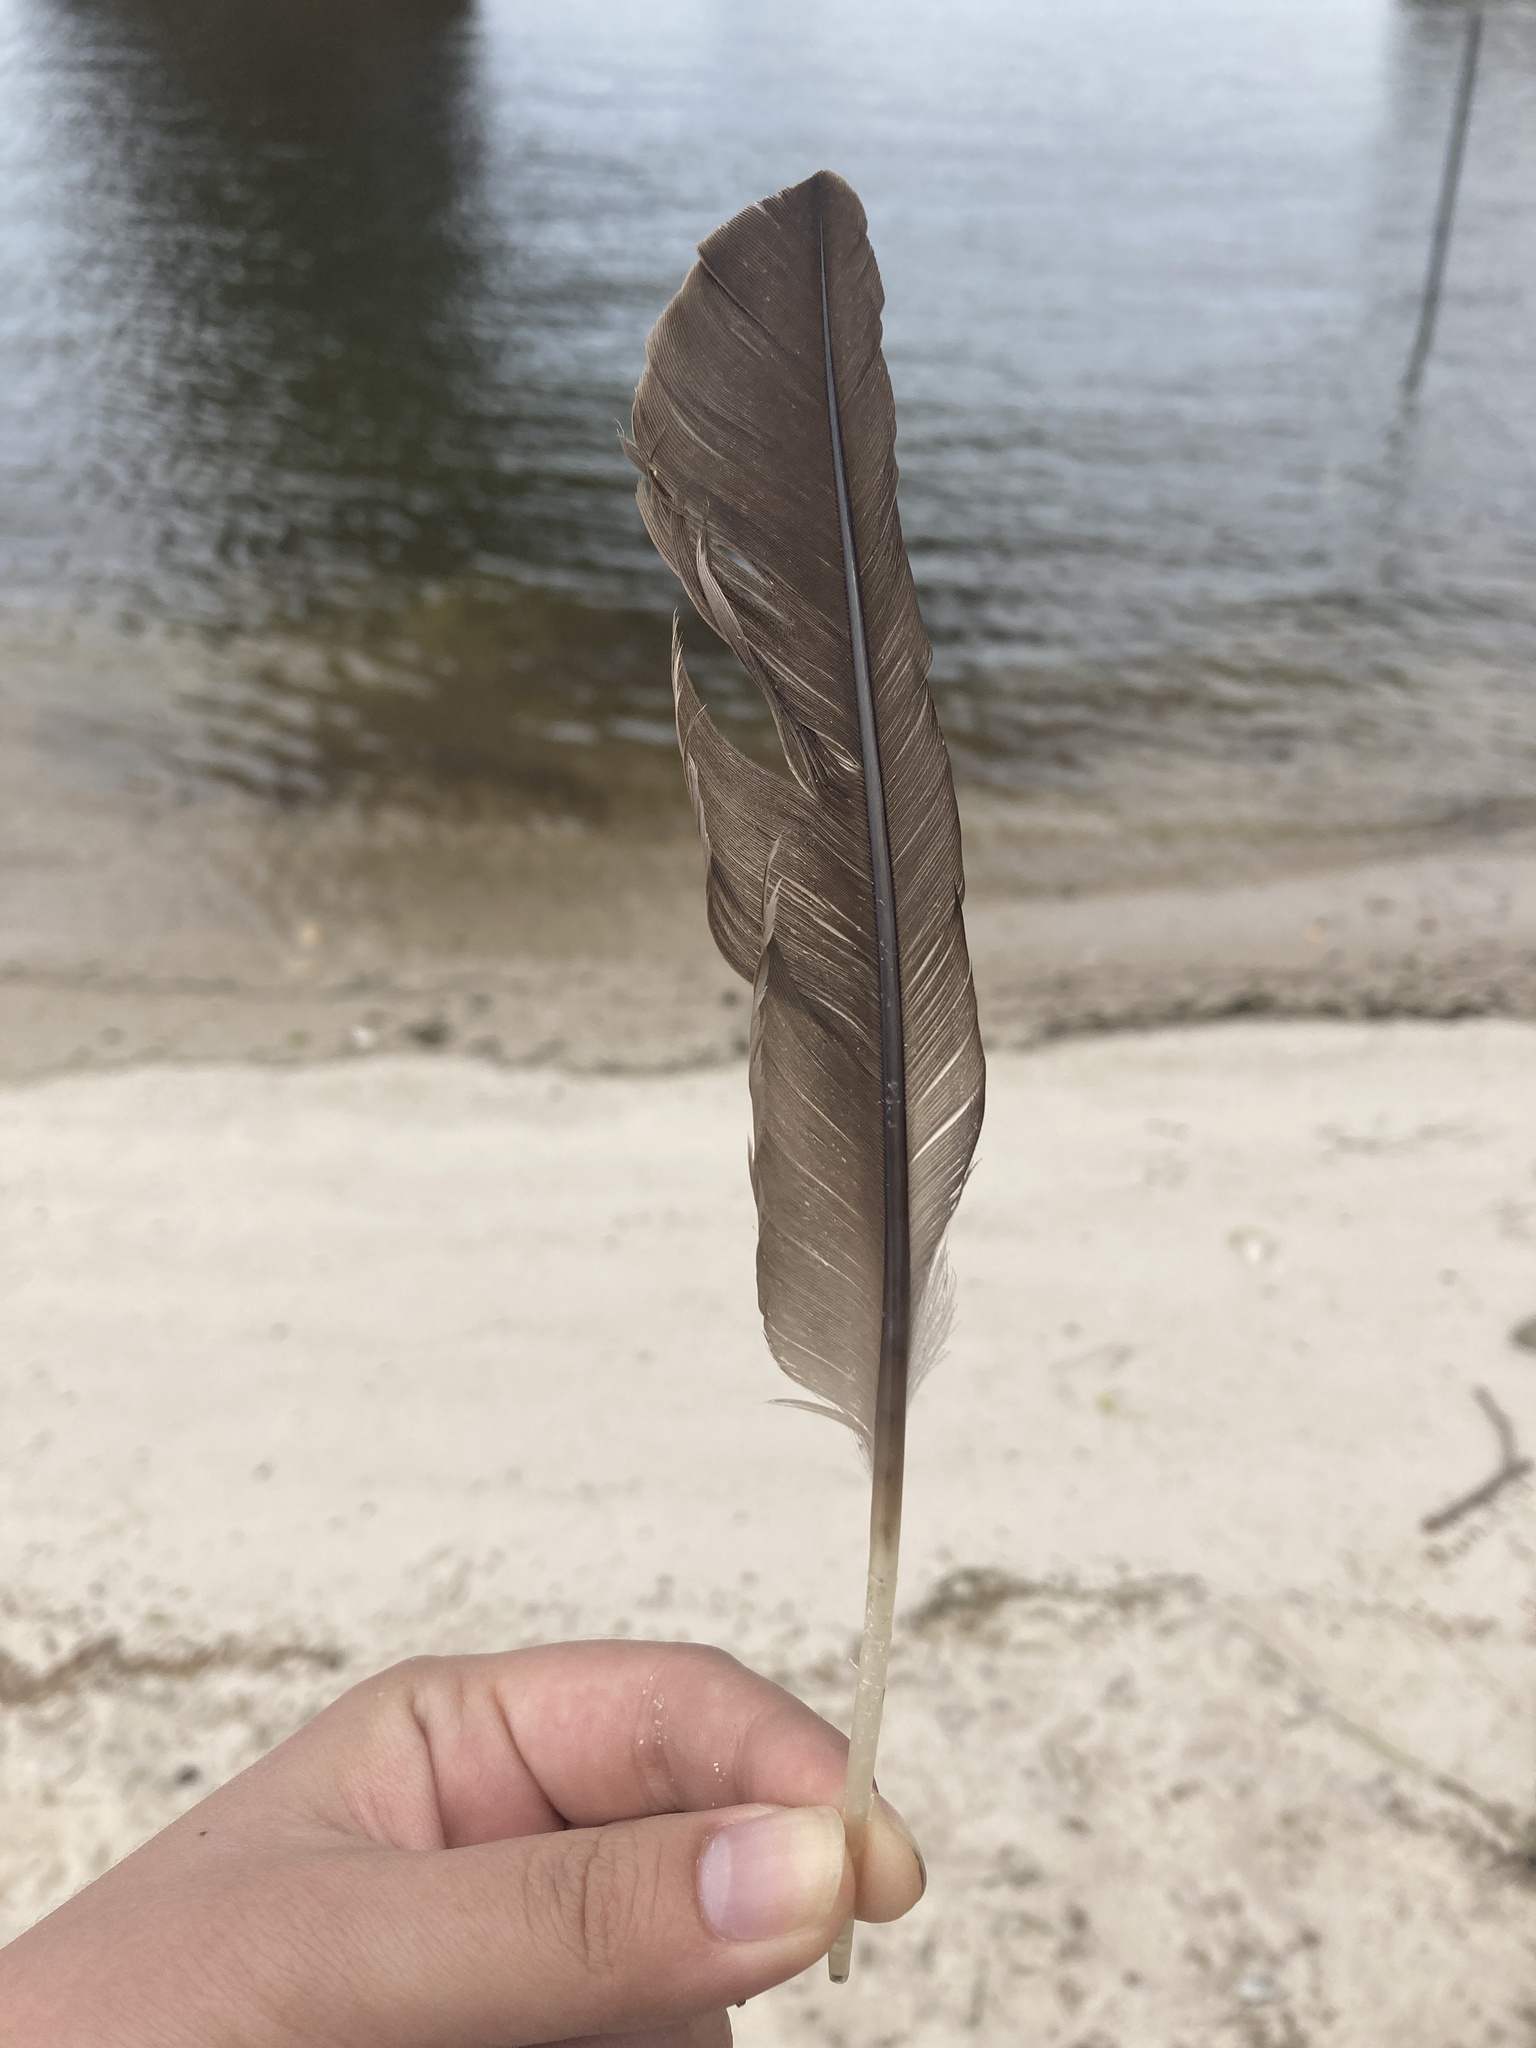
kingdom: Animalia
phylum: Chordata
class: Aves
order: Suliformes
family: Phalacrocoracidae
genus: Phalacrocorax
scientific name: Phalacrocorax auritus
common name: Double-crested cormorant
